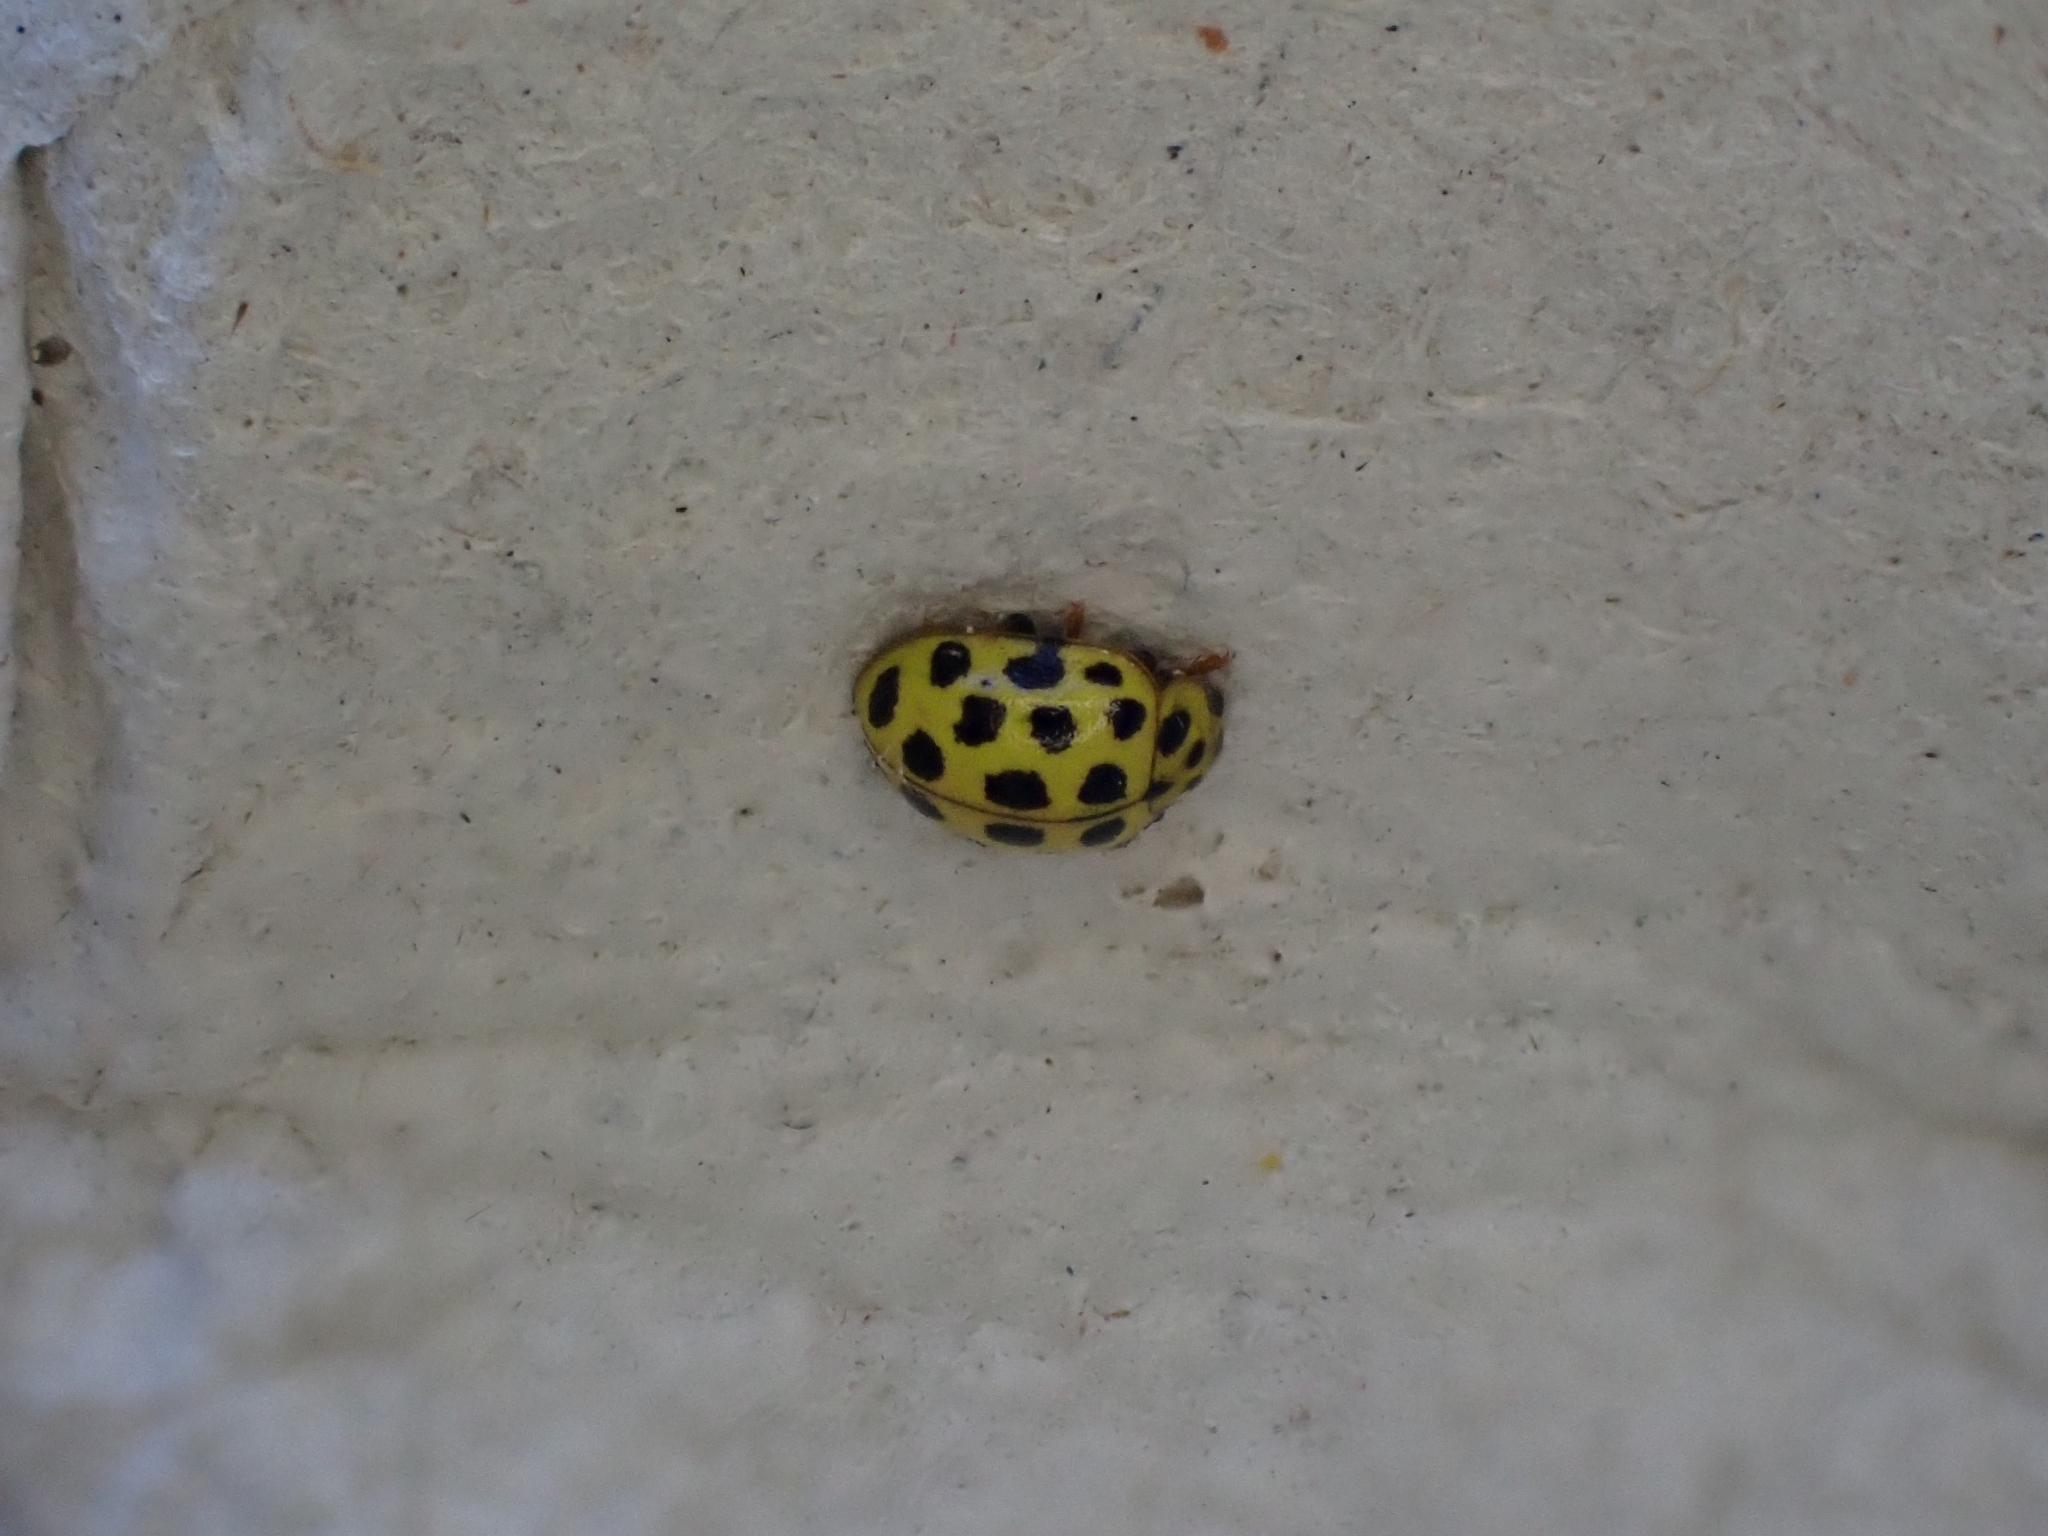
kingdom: Animalia
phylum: Arthropoda
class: Insecta
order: Coleoptera
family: Coccinellidae
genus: Psyllobora
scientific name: Psyllobora vigintiduopunctata
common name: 22-spot ladybird
